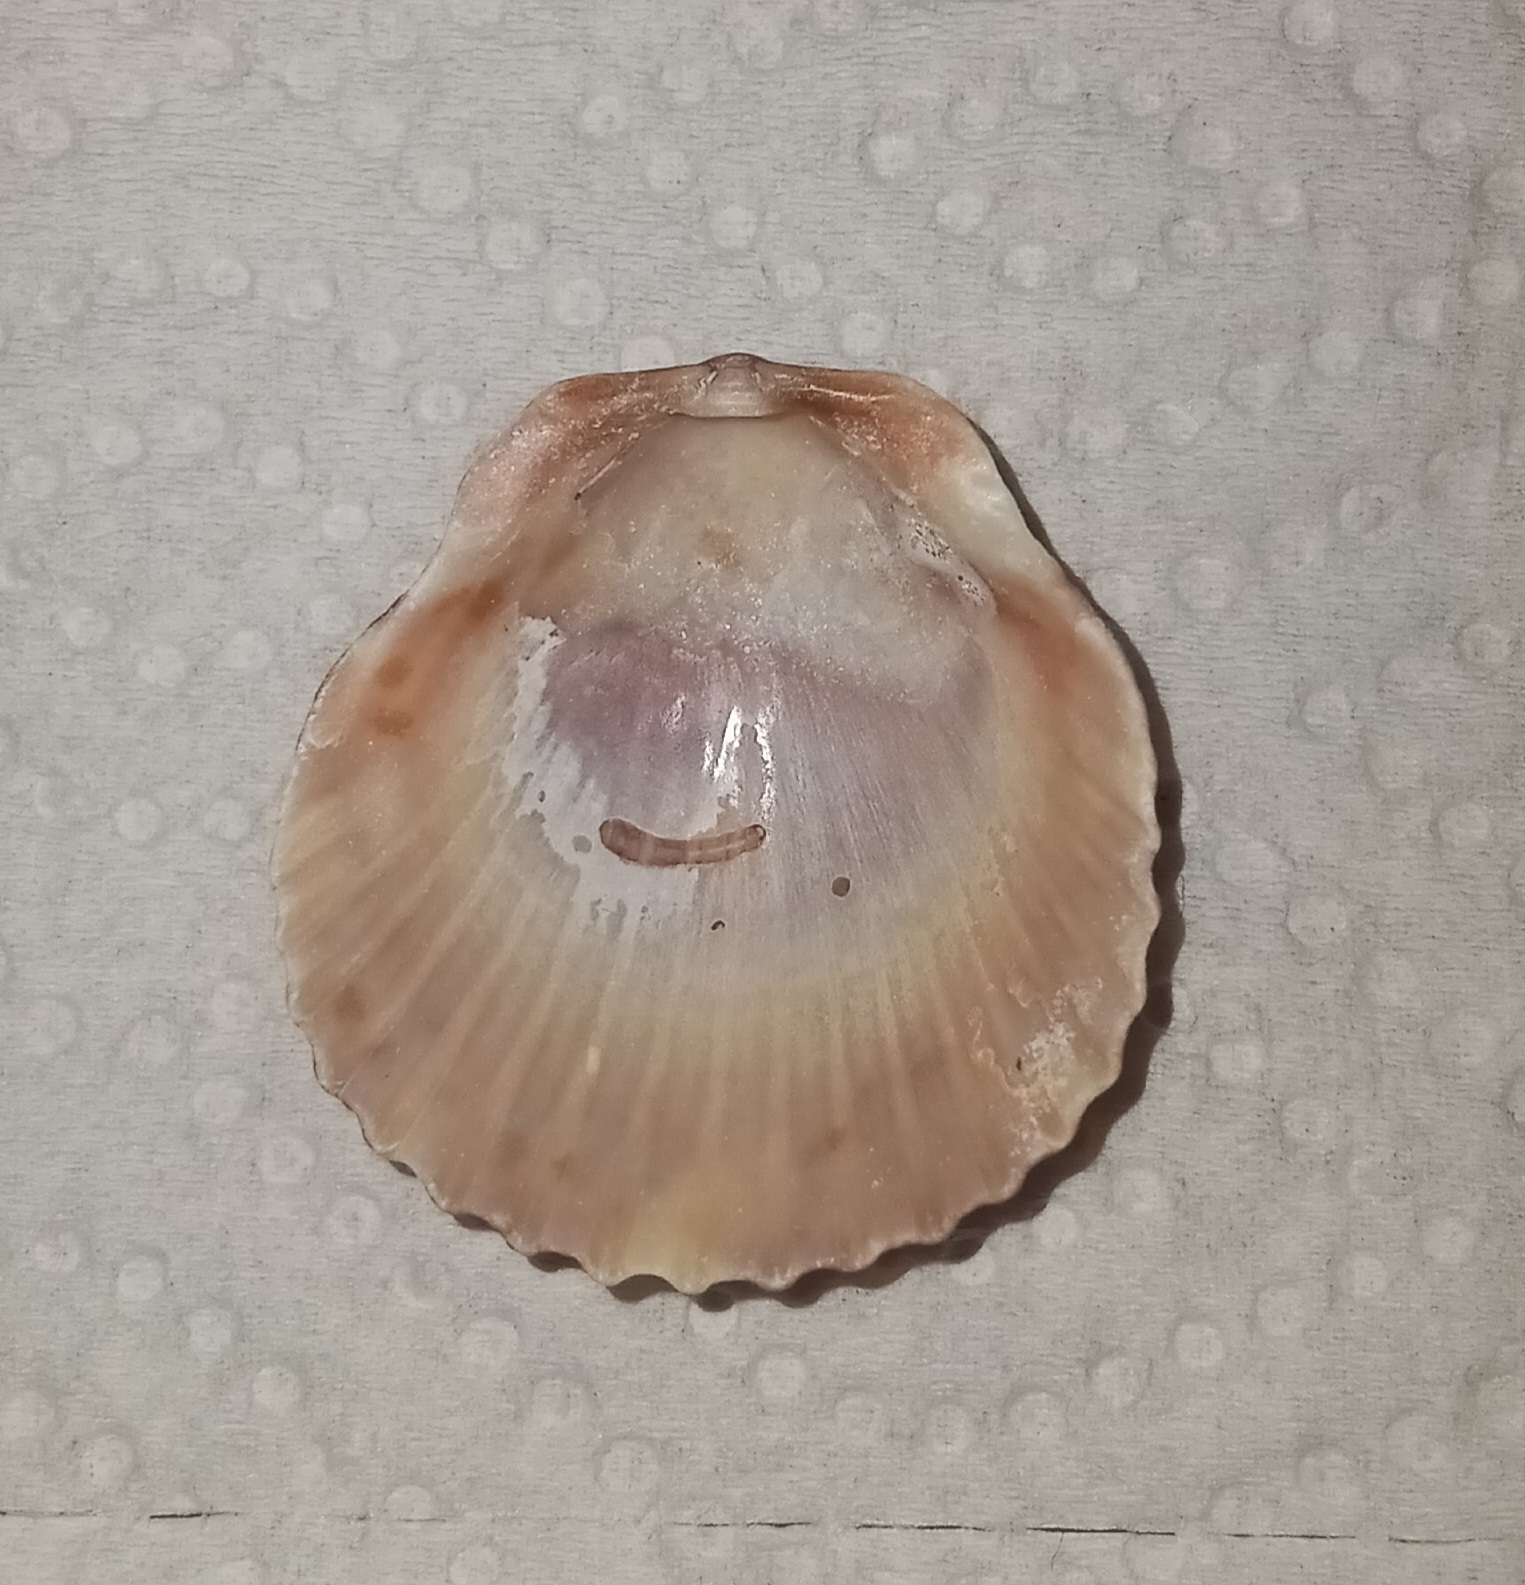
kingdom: Animalia
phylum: Mollusca
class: Bivalvia
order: Pectinida
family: Pectinidae
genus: Argopecten
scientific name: Argopecten gibbus
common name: Atlantic calico scallop
